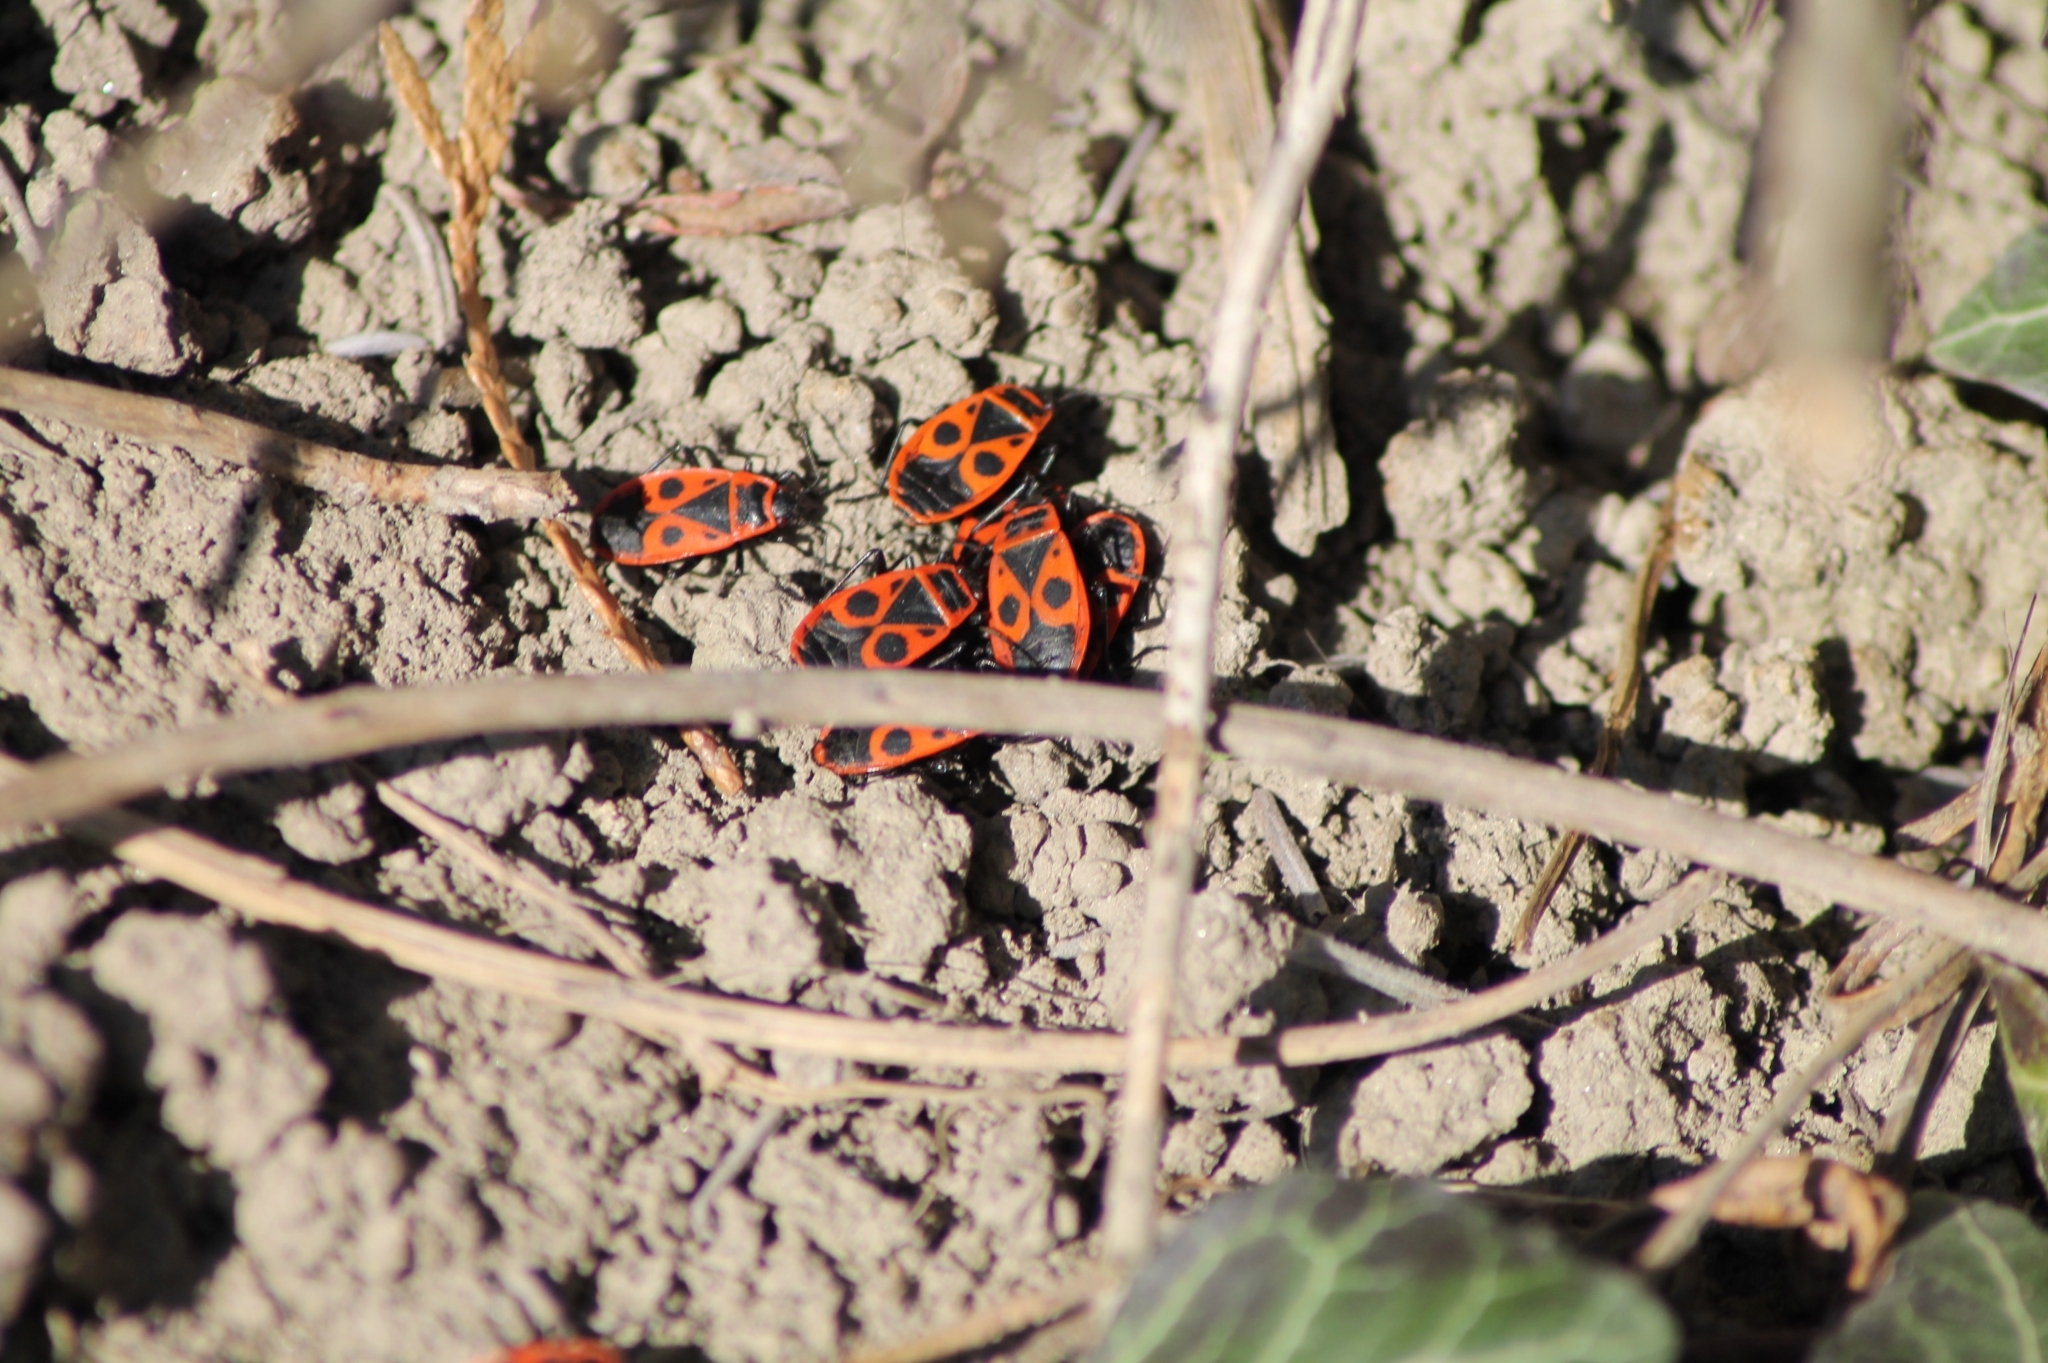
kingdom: Animalia
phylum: Arthropoda
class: Insecta
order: Hemiptera
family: Pyrrhocoridae
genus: Pyrrhocoris
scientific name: Pyrrhocoris apterus
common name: Firebug
